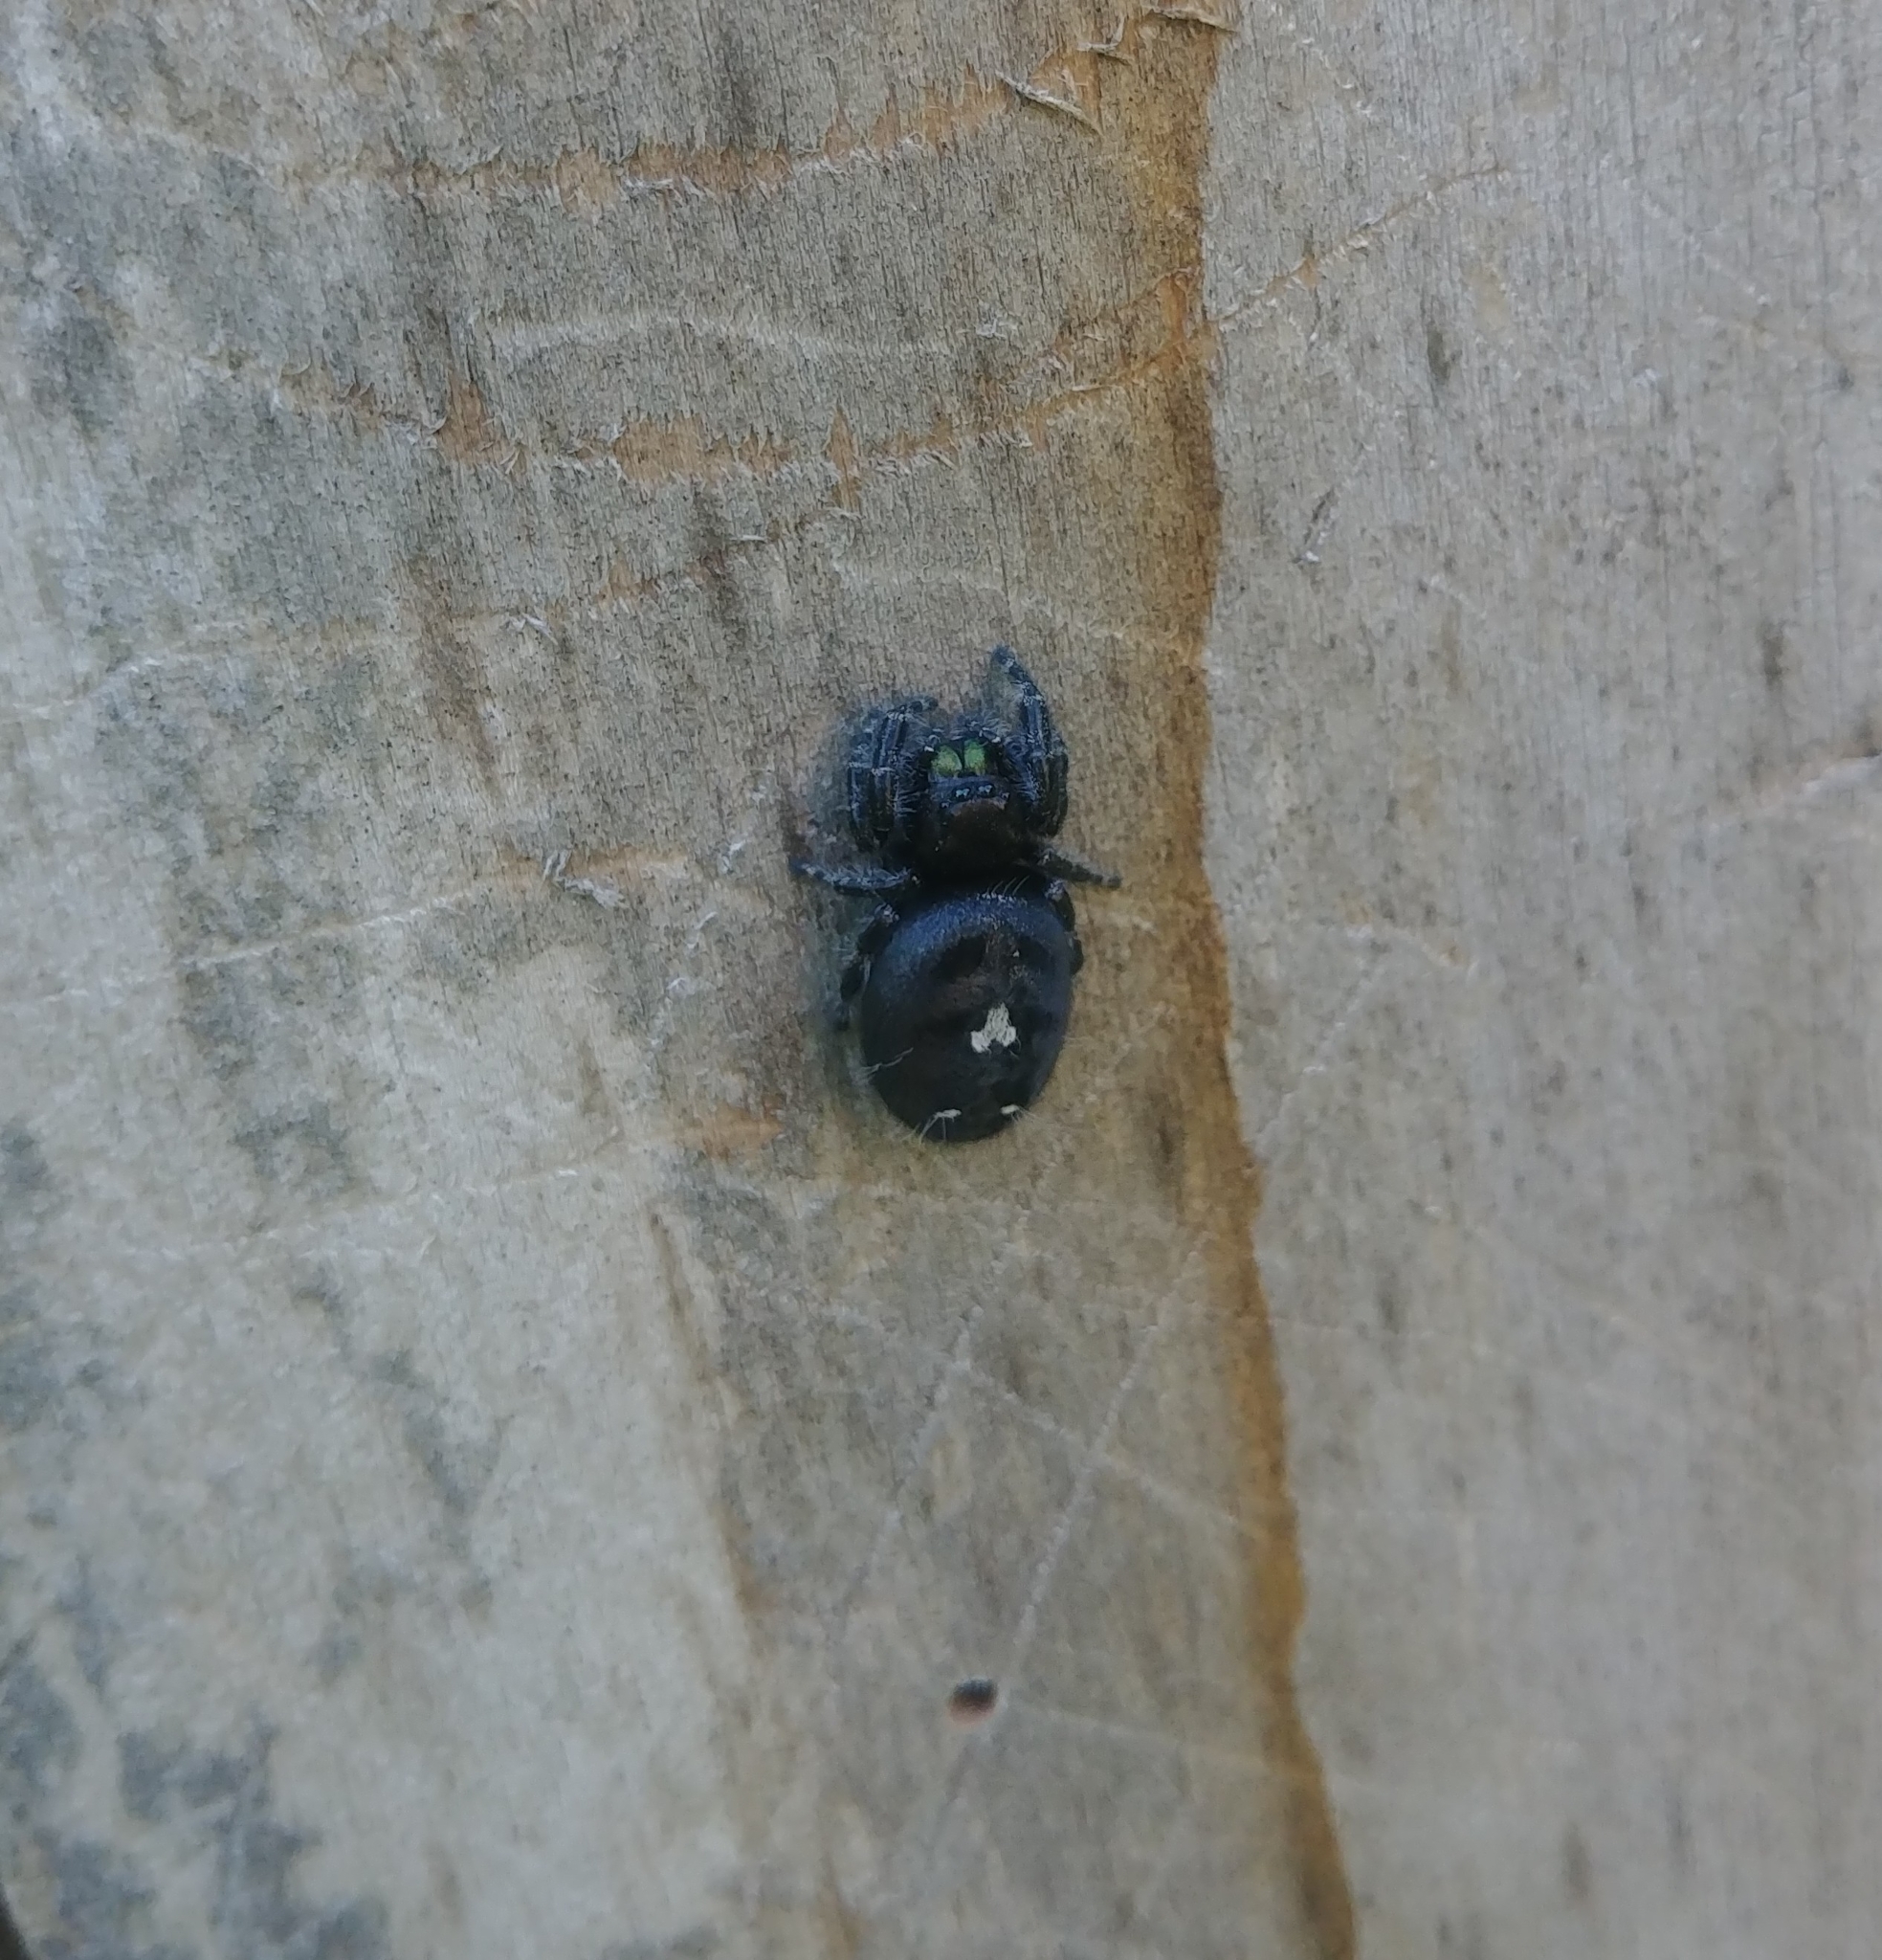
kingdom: Animalia
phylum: Arthropoda
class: Arachnida
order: Araneae
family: Salticidae
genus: Phidippus
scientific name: Phidippus audax
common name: Bold jumper
